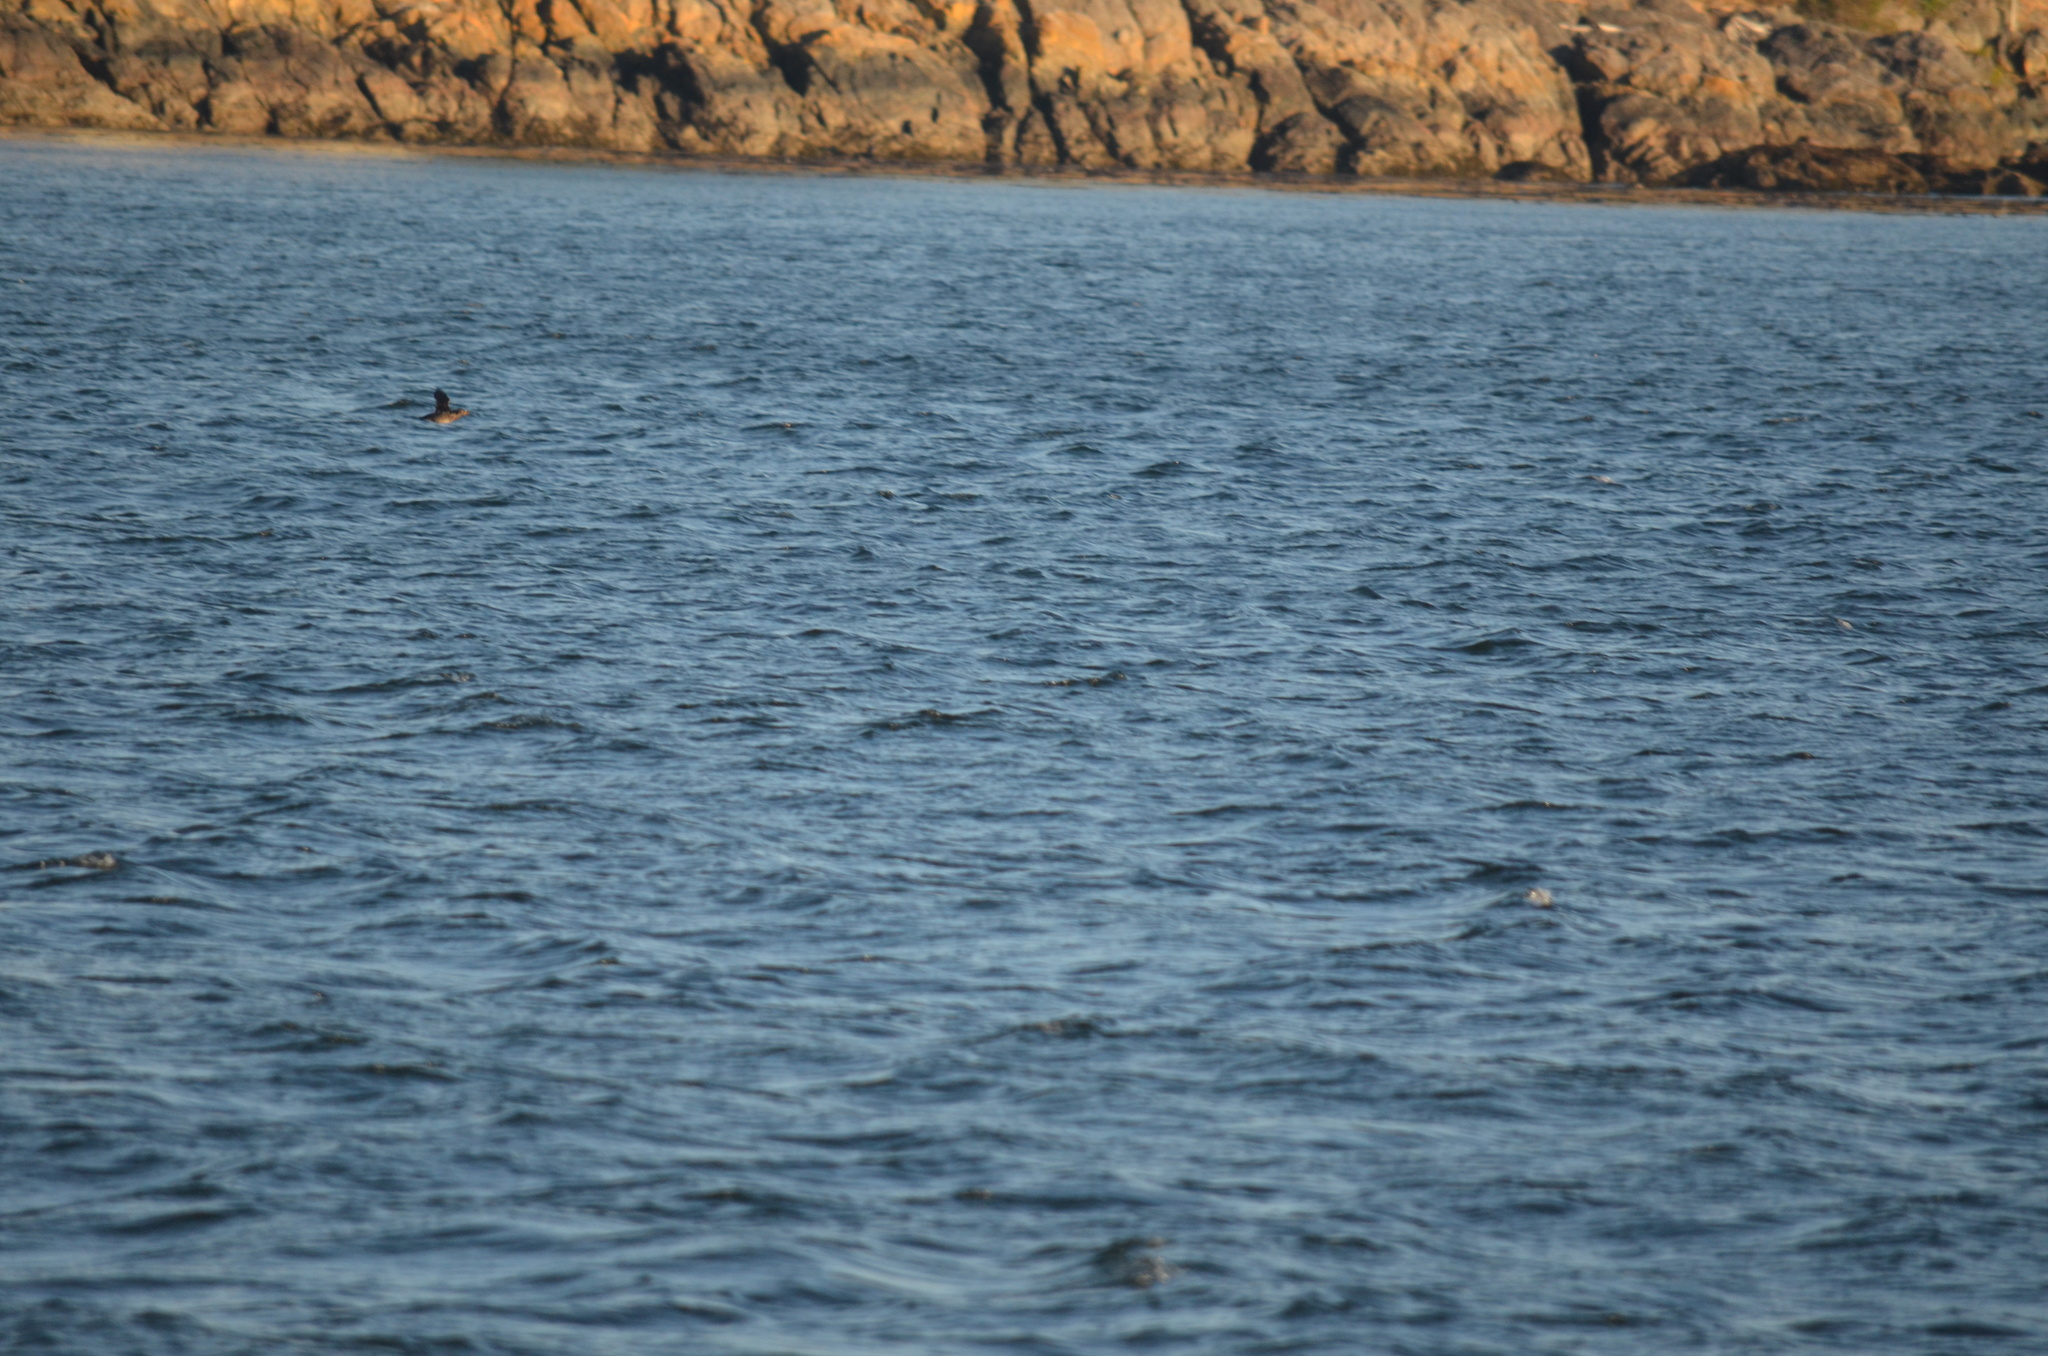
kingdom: Animalia
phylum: Chordata
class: Aves
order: Charadriiformes
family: Alcidae
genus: Cerorhinca
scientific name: Cerorhinca monocerata
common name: Rhinoceros auklet
